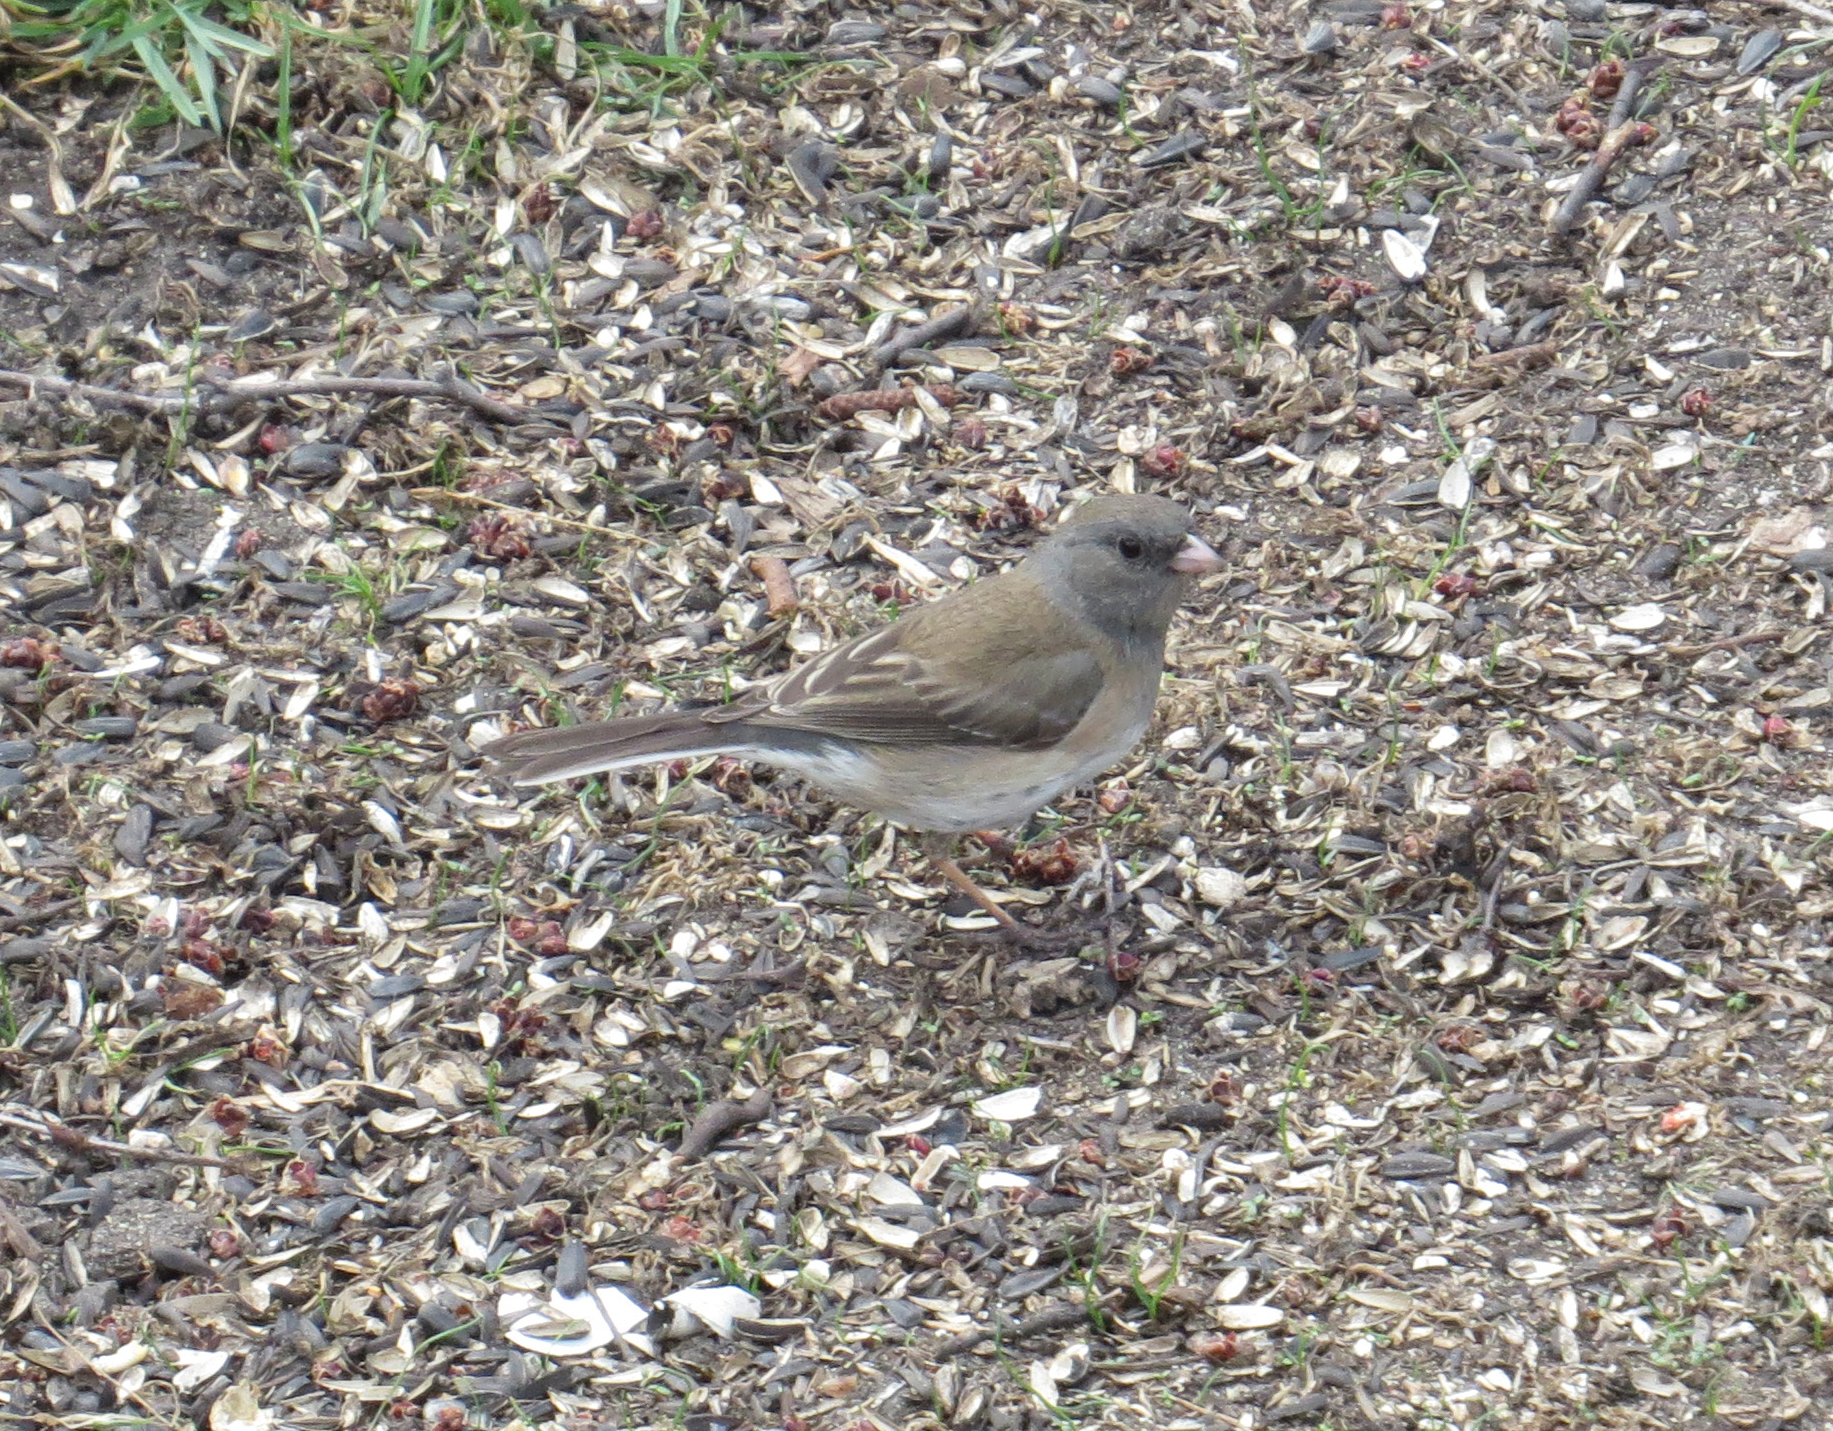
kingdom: Animalia
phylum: Chordata
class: Aves
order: Passeriformes
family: Passerellidae
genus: Junco
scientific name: Junco hyemalis
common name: Dark-eyed junco
